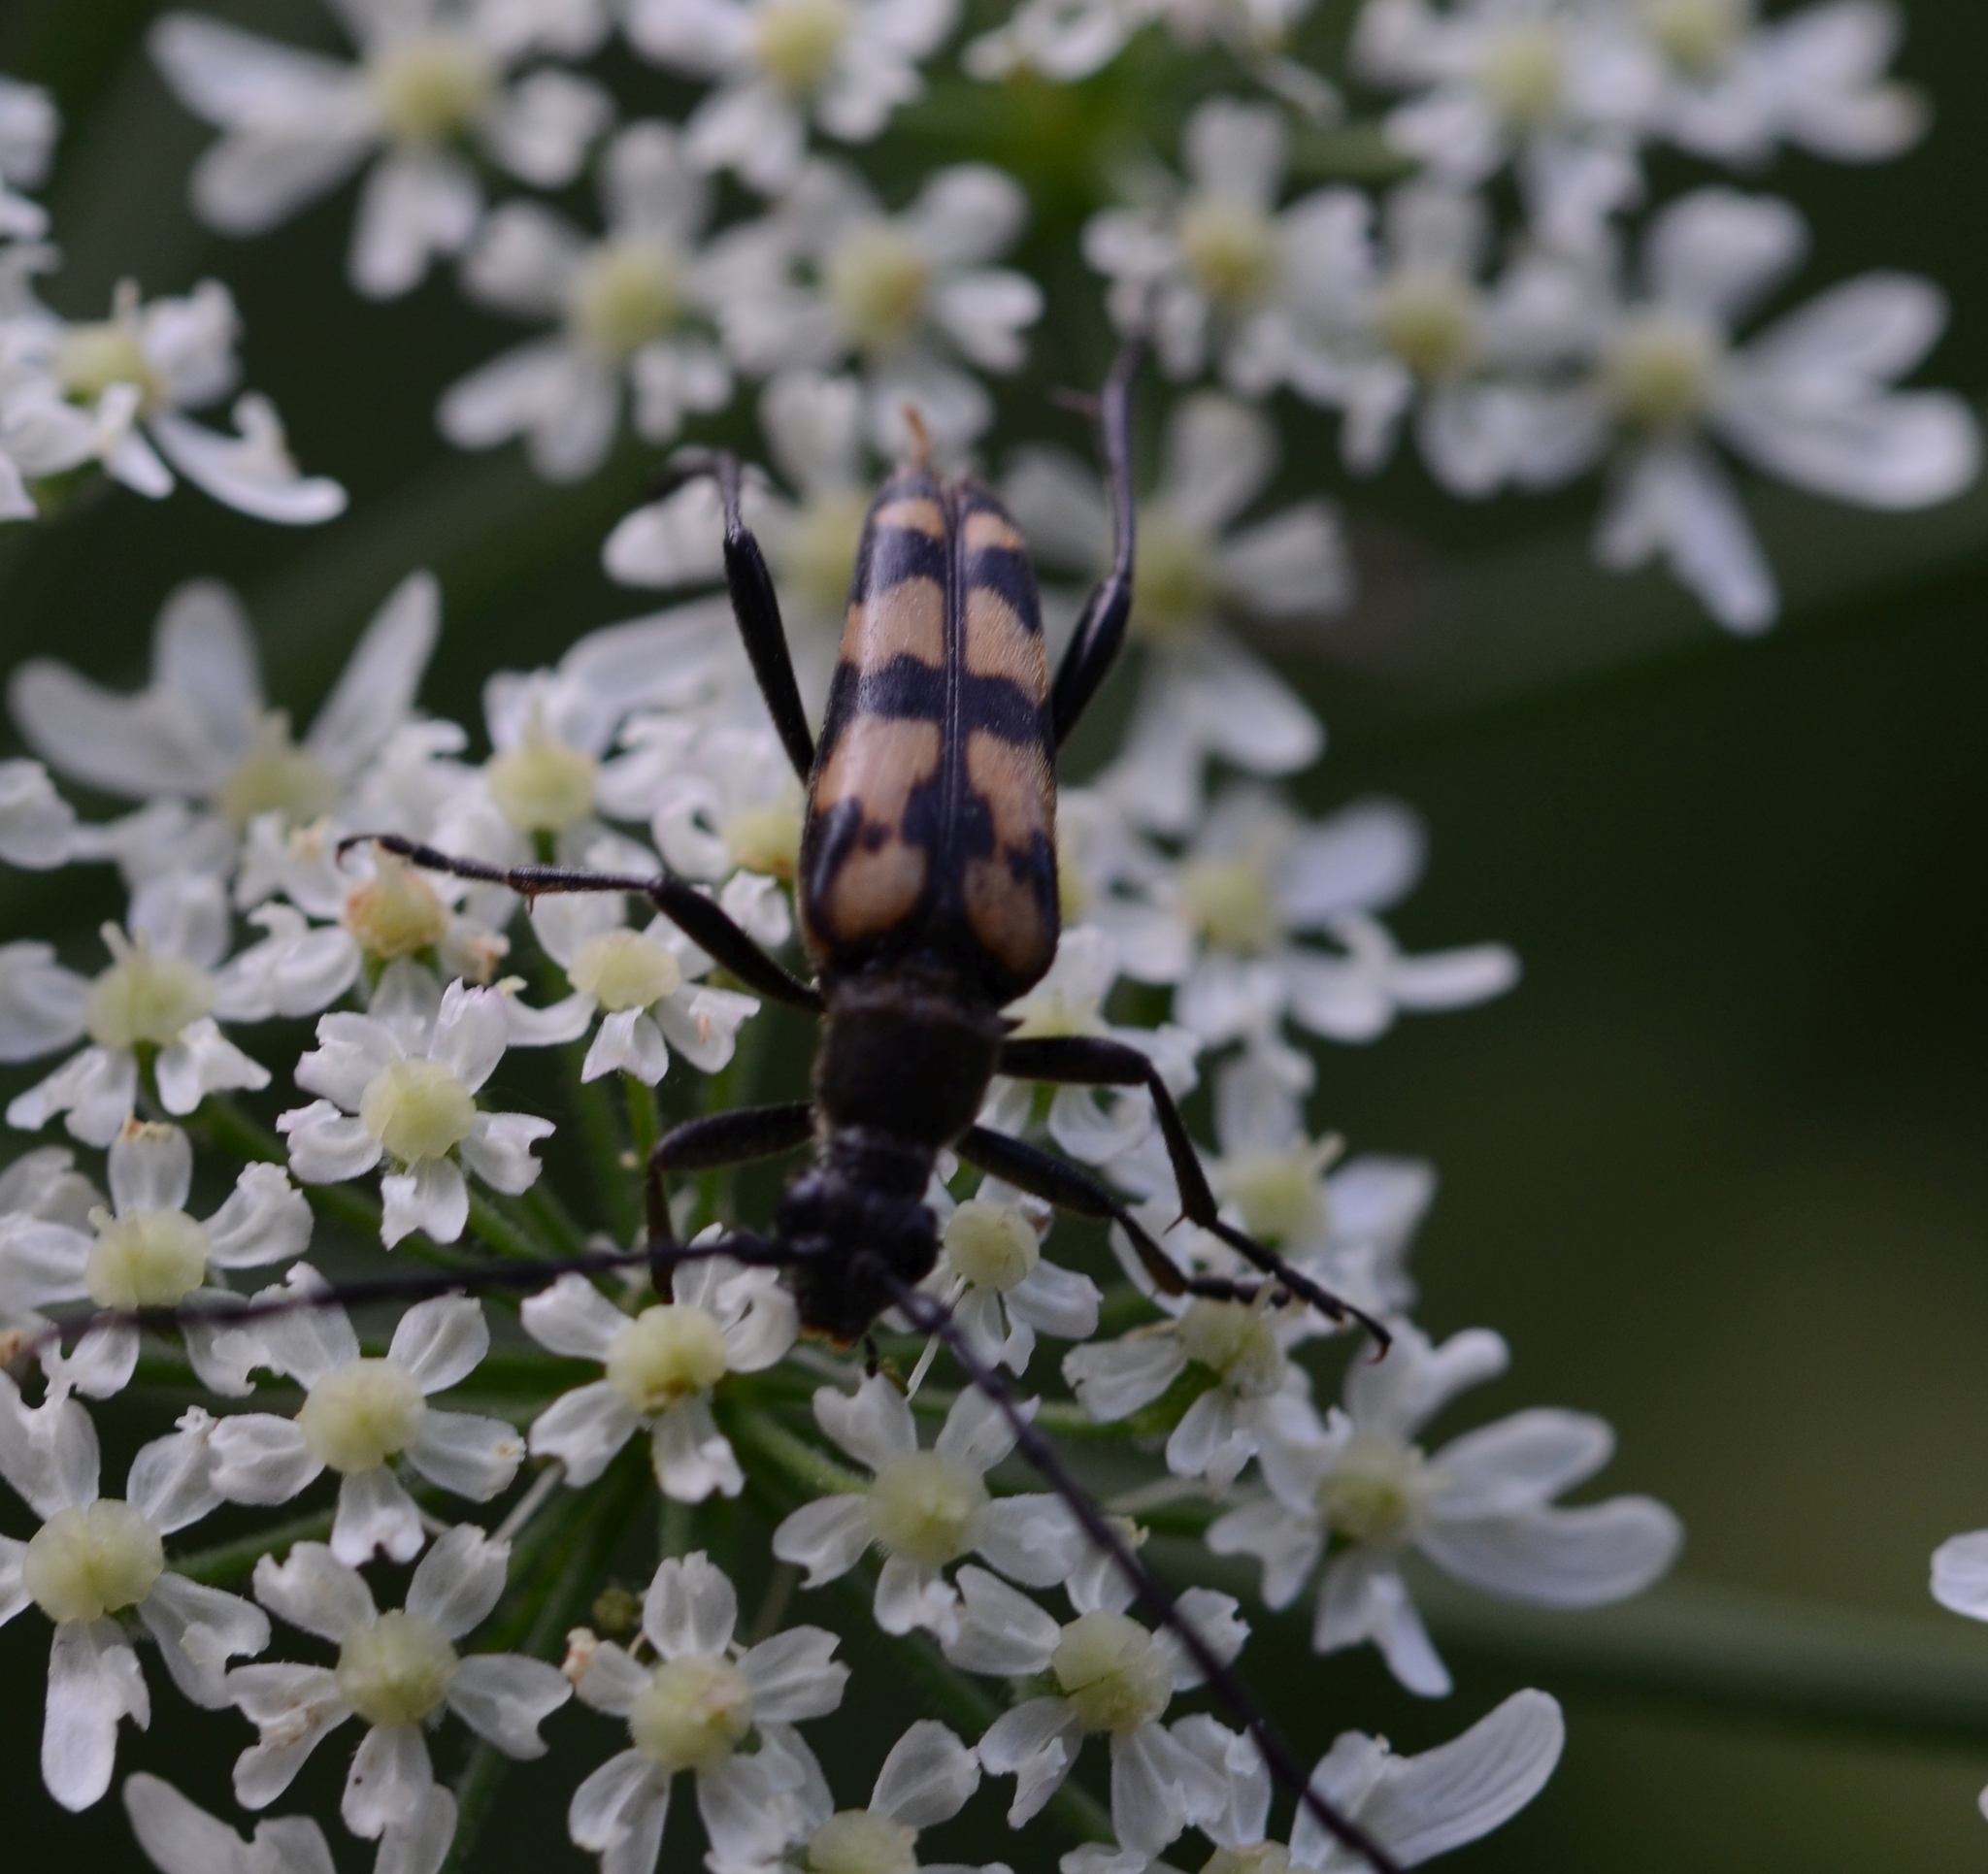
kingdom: Animalia
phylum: Arthropoda
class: Insecta
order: Coleoptera
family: Cerambycidae
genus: Leptura
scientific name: Leptura quadrifasciata
